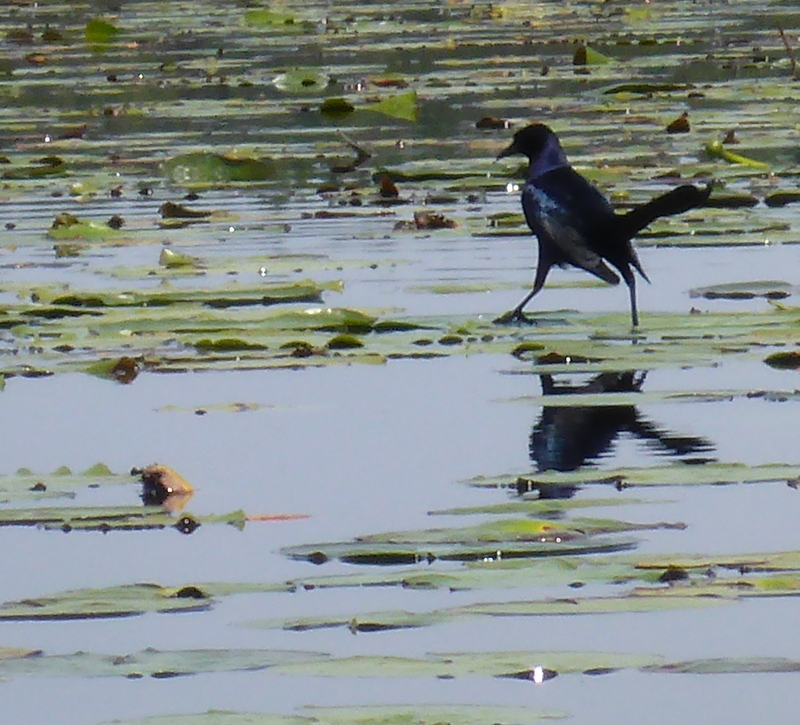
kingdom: Animalia
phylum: Chordata
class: Aves
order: Passeriformes
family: Icteridae
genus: Quiscalus
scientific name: Quiscalus major
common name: Boat-tailed grackle
